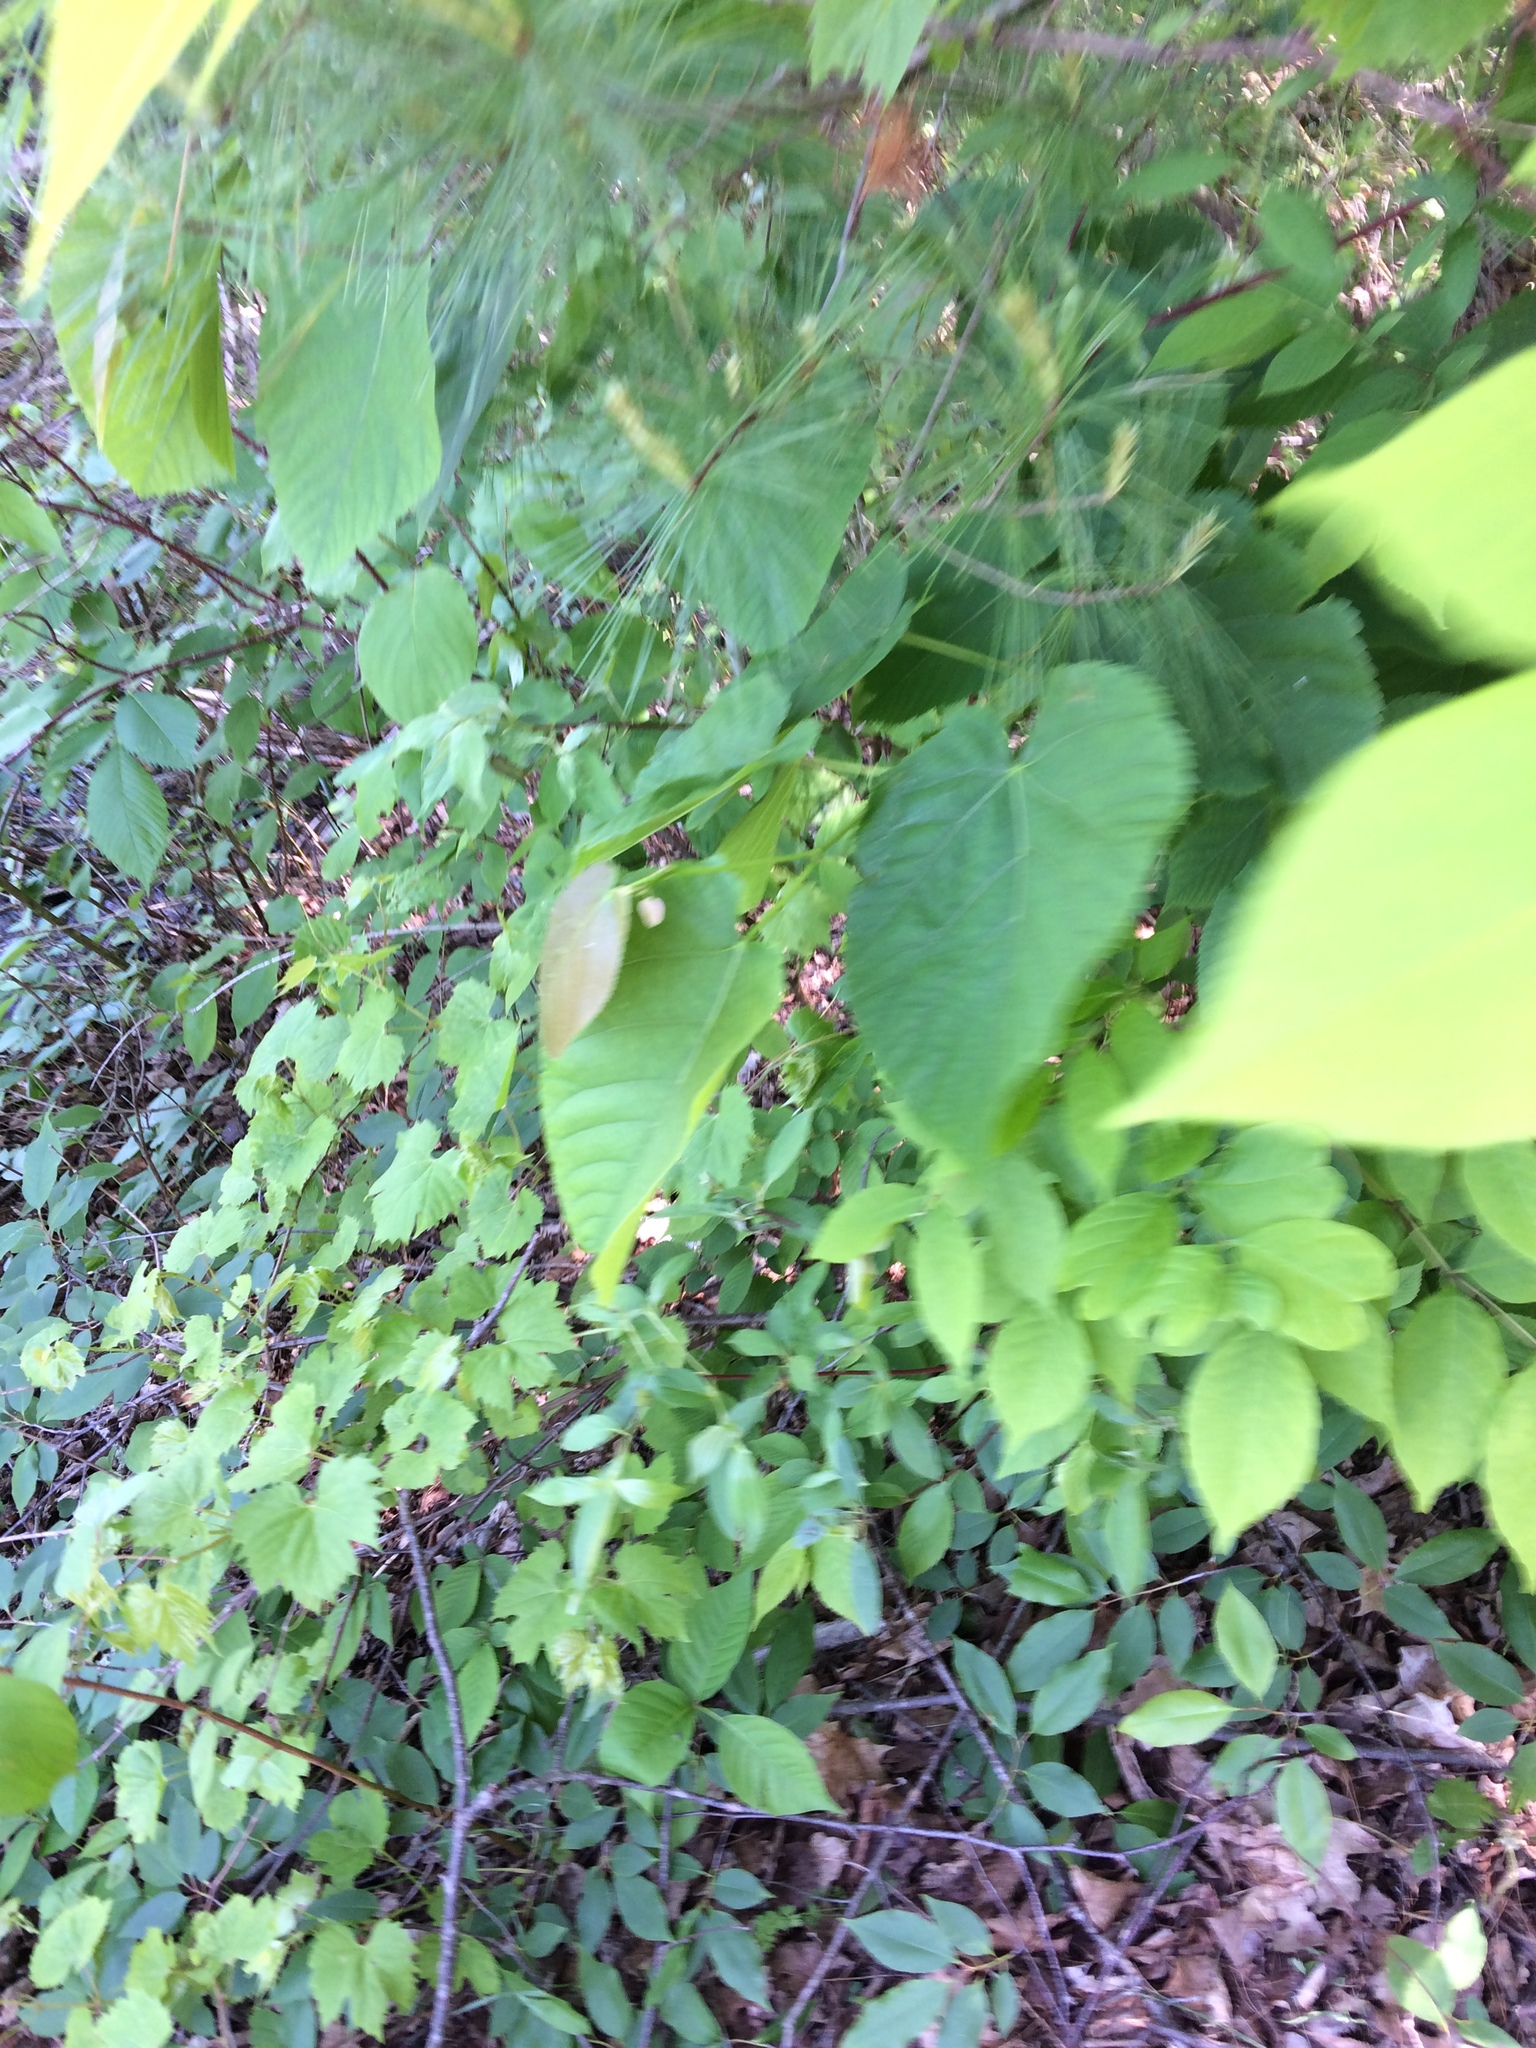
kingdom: Plantae
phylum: Tracheophyta
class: Magnoliopsida
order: Malvales
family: Malvaceae
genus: Tilia
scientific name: Tilia americana
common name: Basswood
